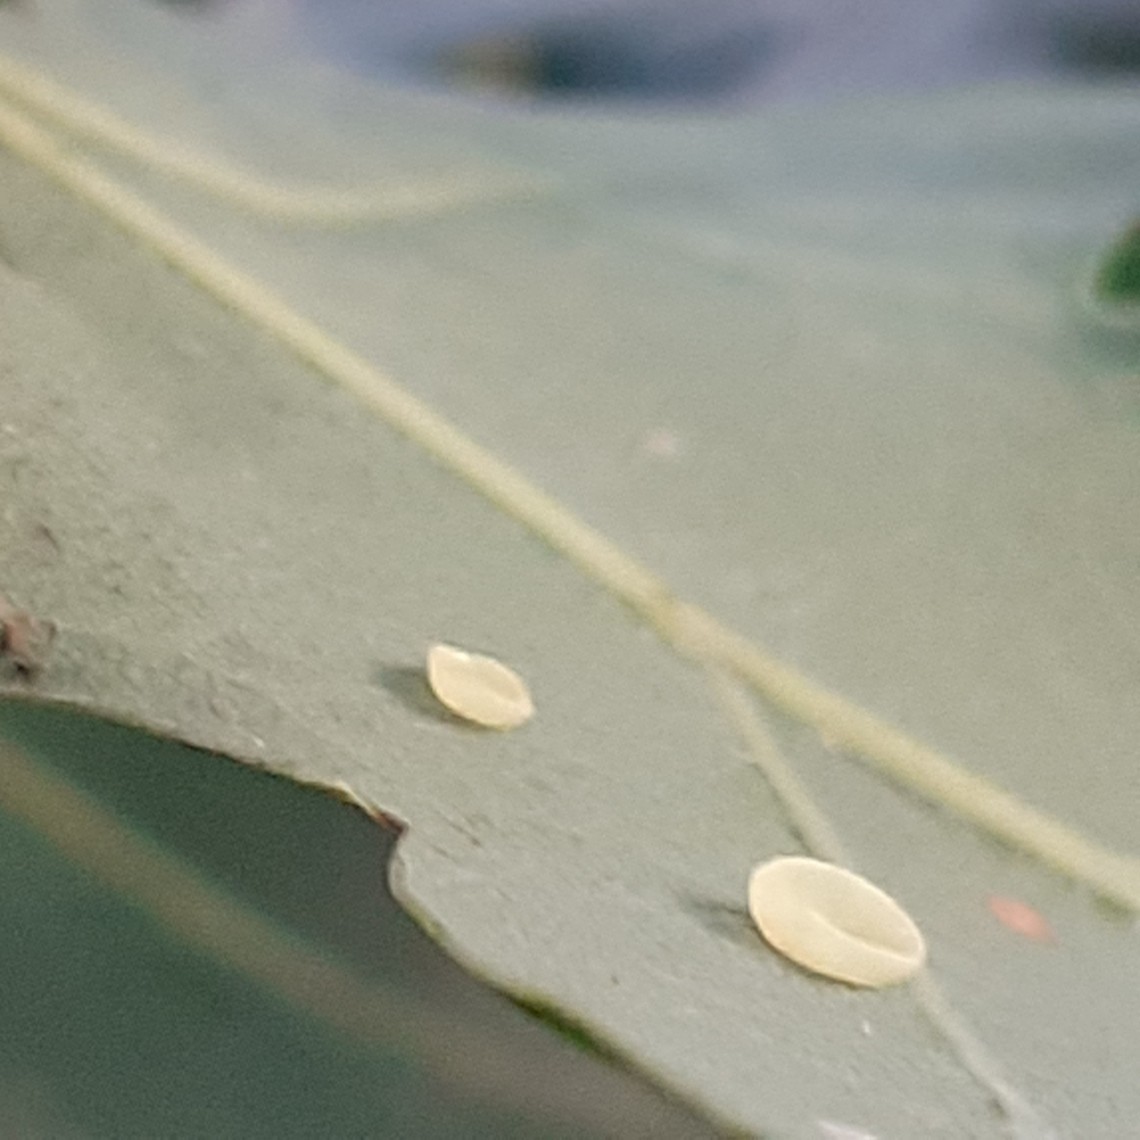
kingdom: Animalia
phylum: Arthropoda
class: Insecta
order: Hymenoptera
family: Cynipidae
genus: Neuroterus
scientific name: Neuroterus albipes
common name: Smooth spangle gall
